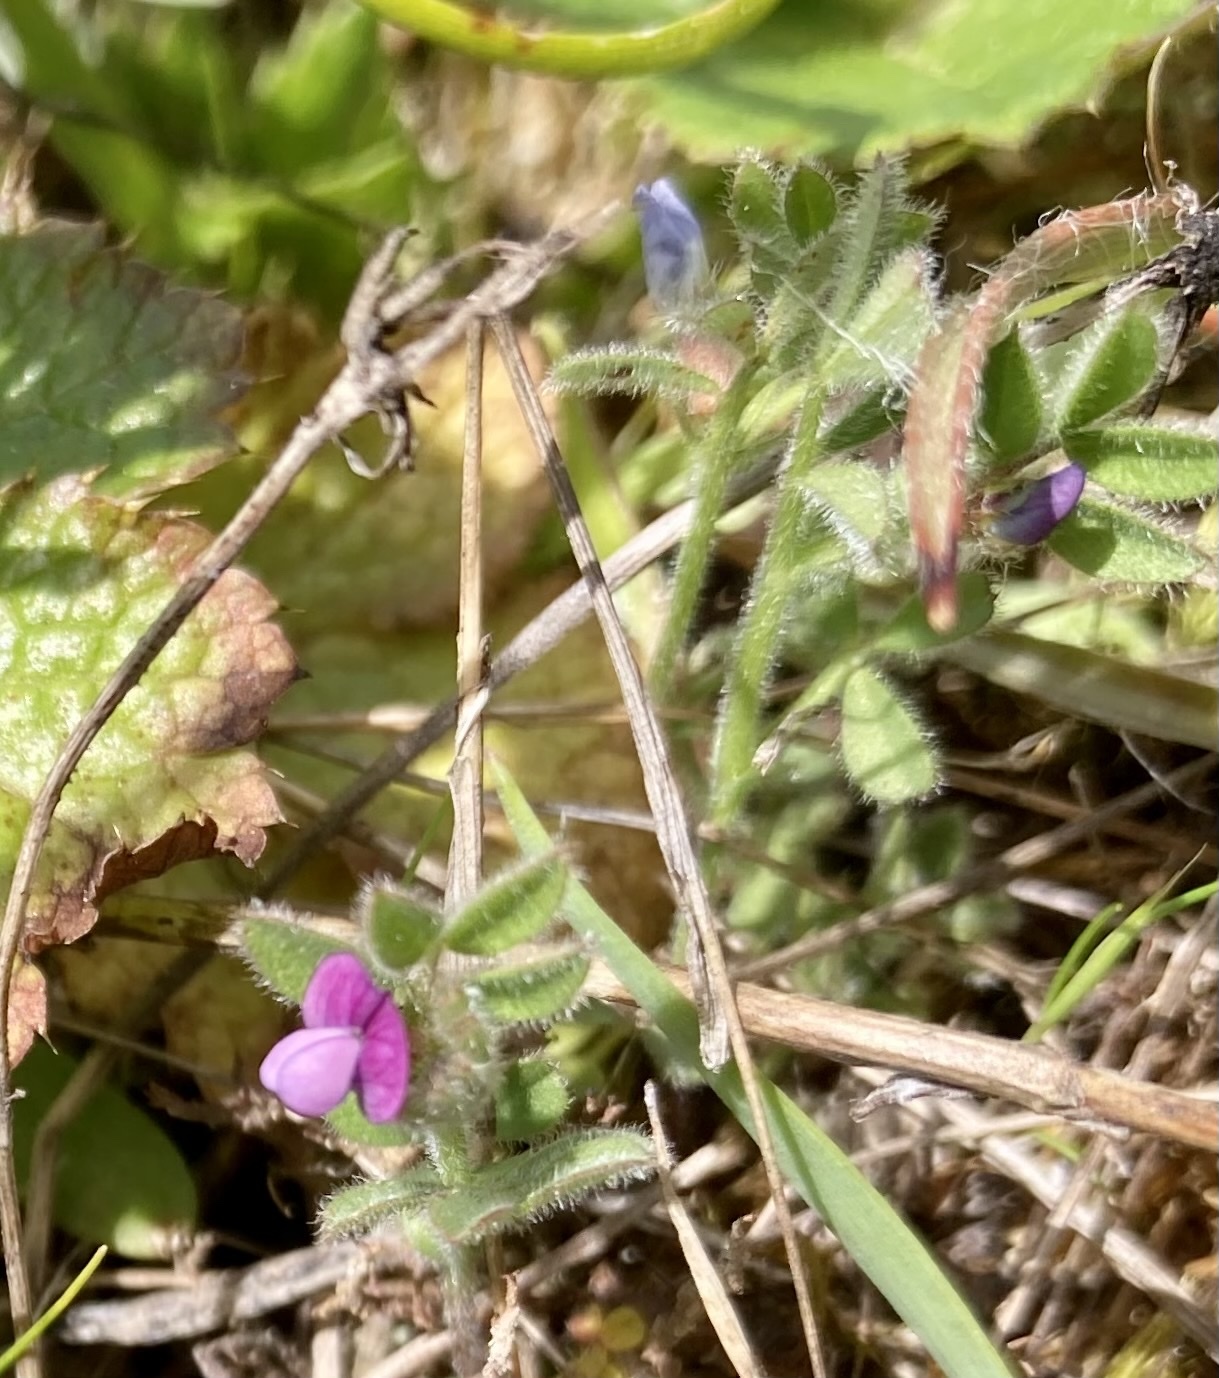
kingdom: Plantae
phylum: Tracheophyta
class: Magnoliopsida
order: Fabales
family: Fabaceae
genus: Vicia
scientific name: Vicia lathyroides
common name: Spring vetch
